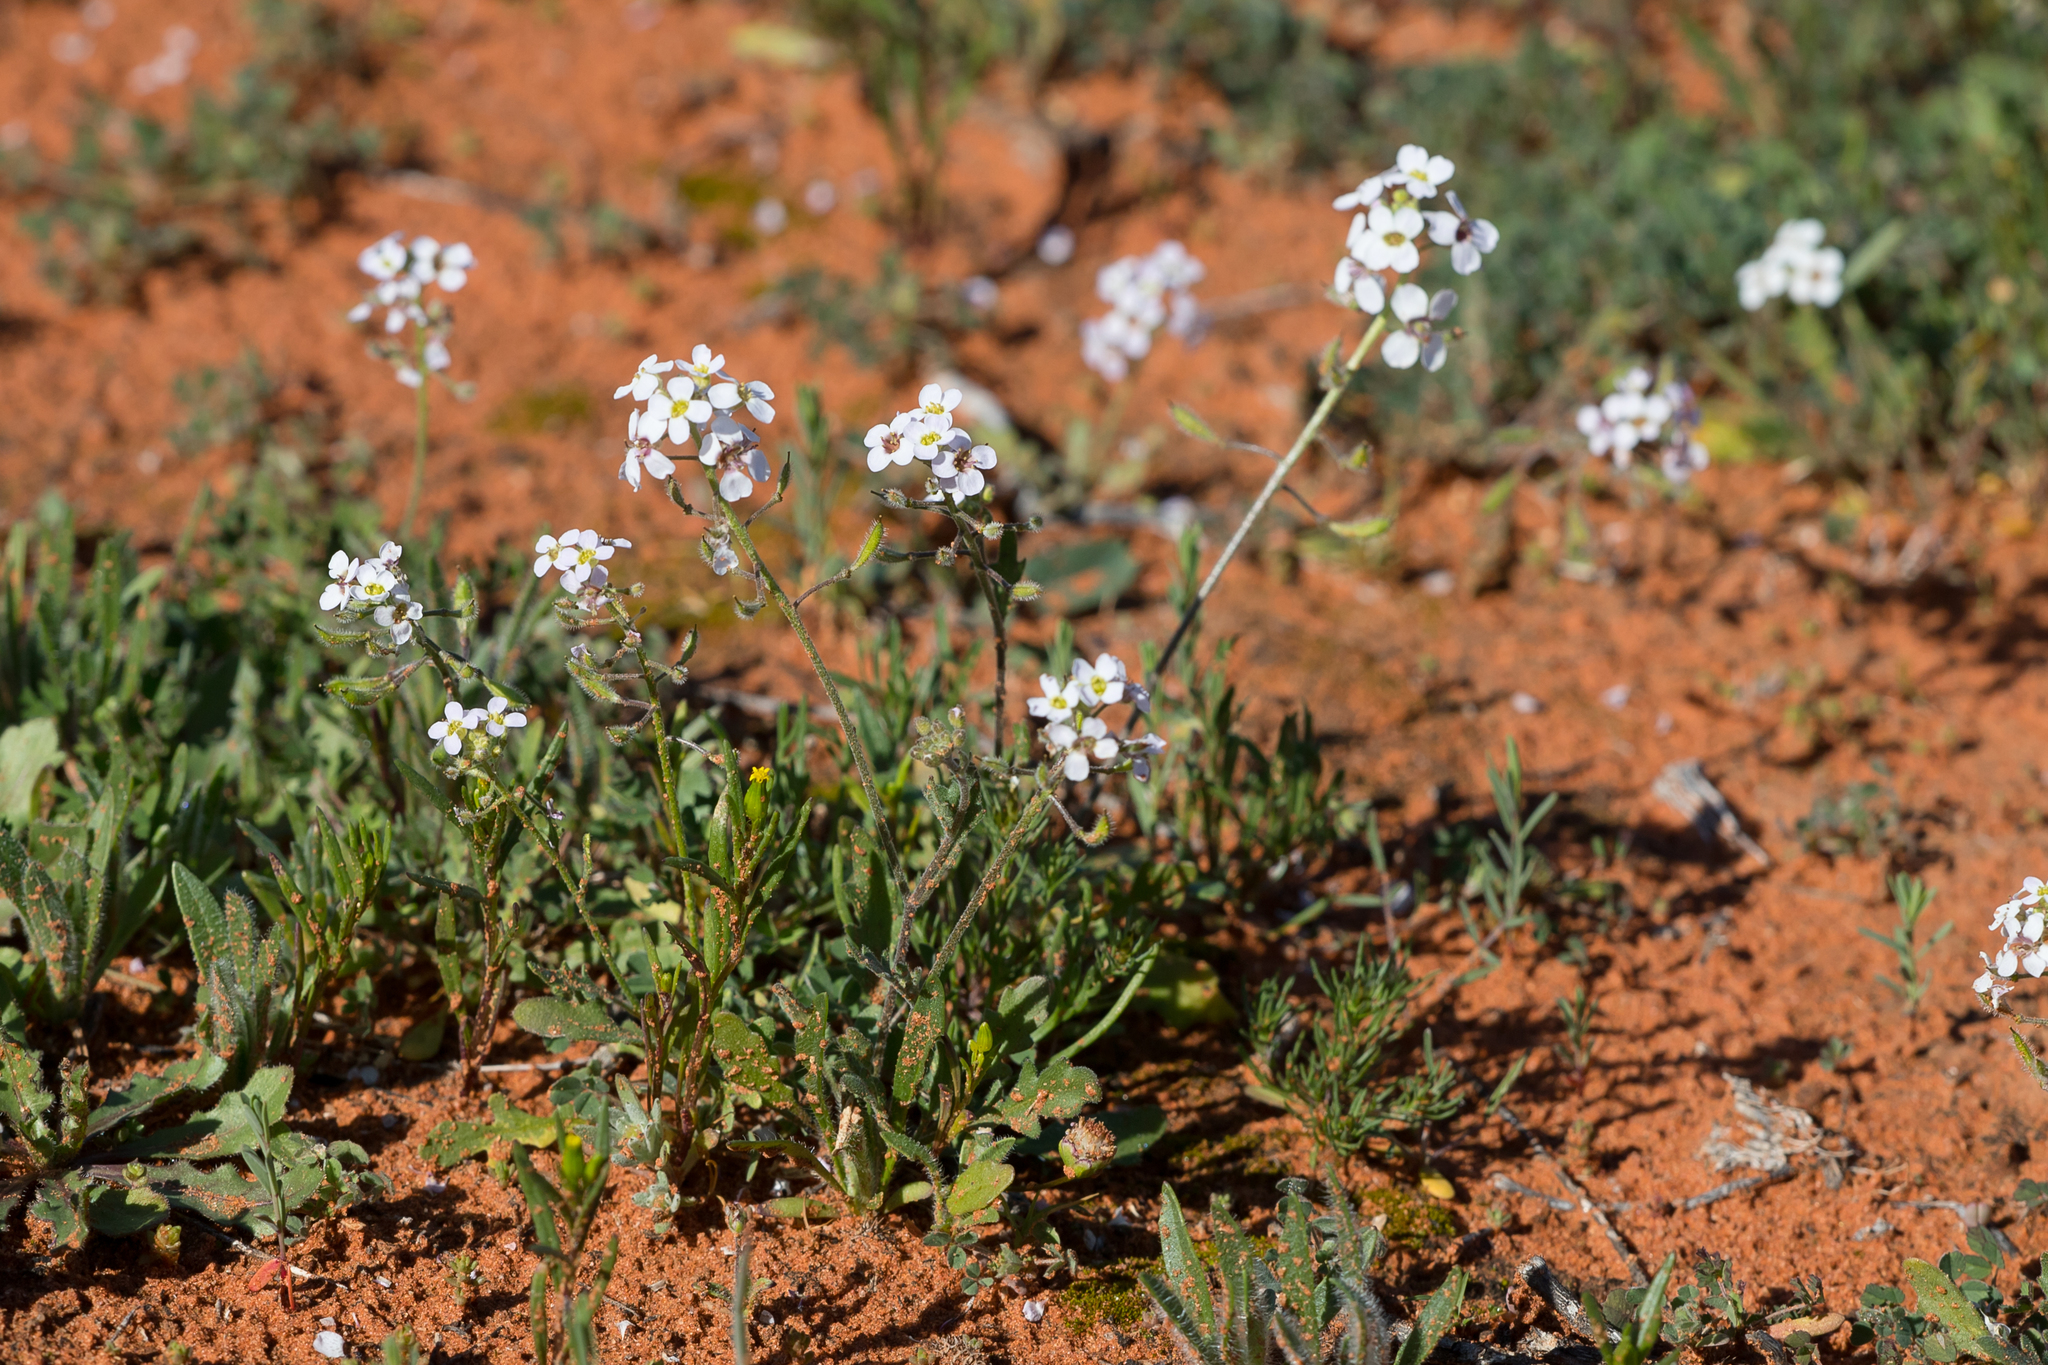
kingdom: Plantae
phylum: Tracheophyta
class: Magnoliopsida
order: Brassicales
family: Brassicaceae
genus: Harmsiodoxa
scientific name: Harmsiodoxa blennodioides
